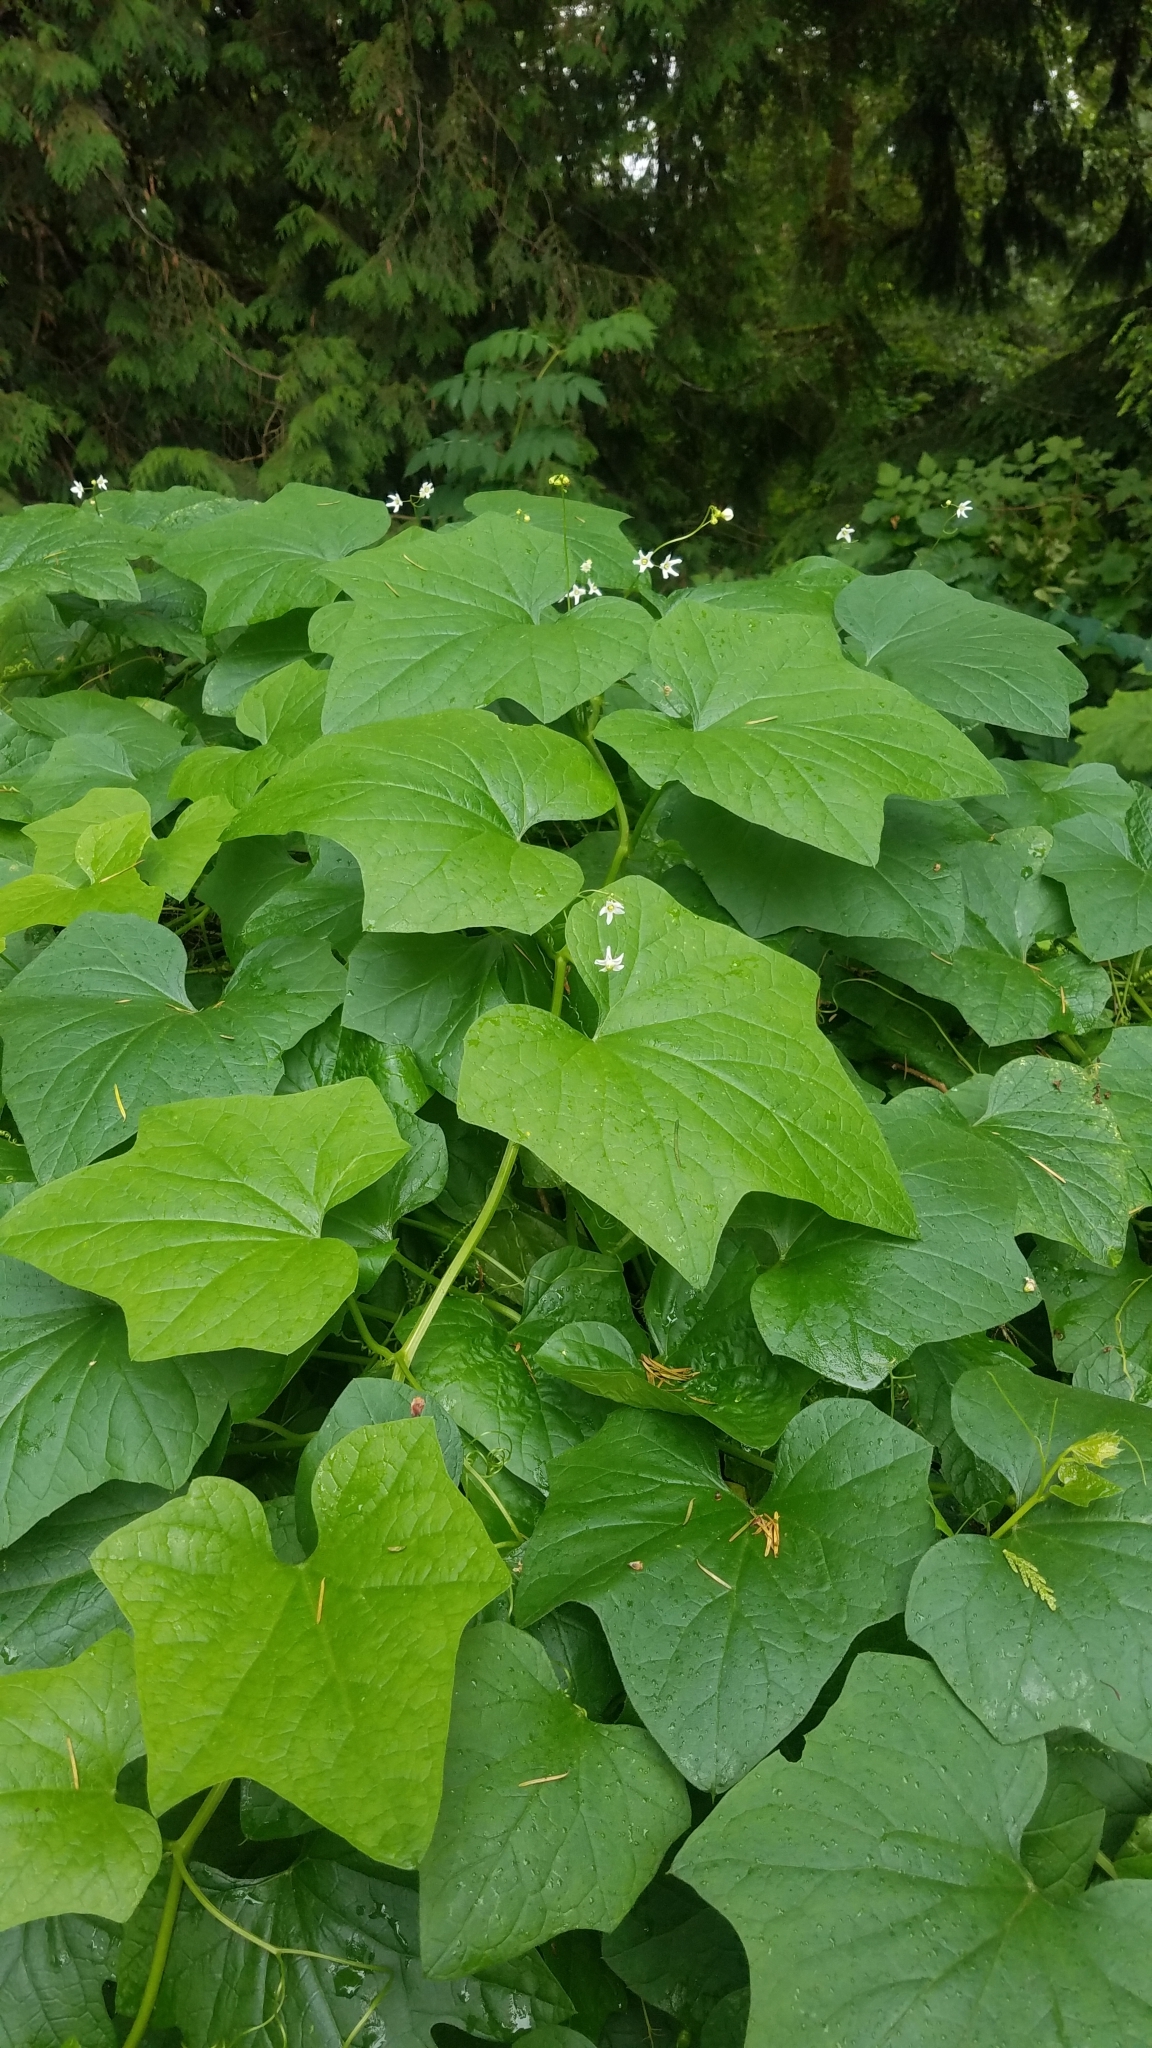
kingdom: Plantae
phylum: Tracheophyta
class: Magnoliopsida
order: Cucurbitales
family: Cucurbitaceae
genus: Marah
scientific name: Marah oregana
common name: Coastal manroot
